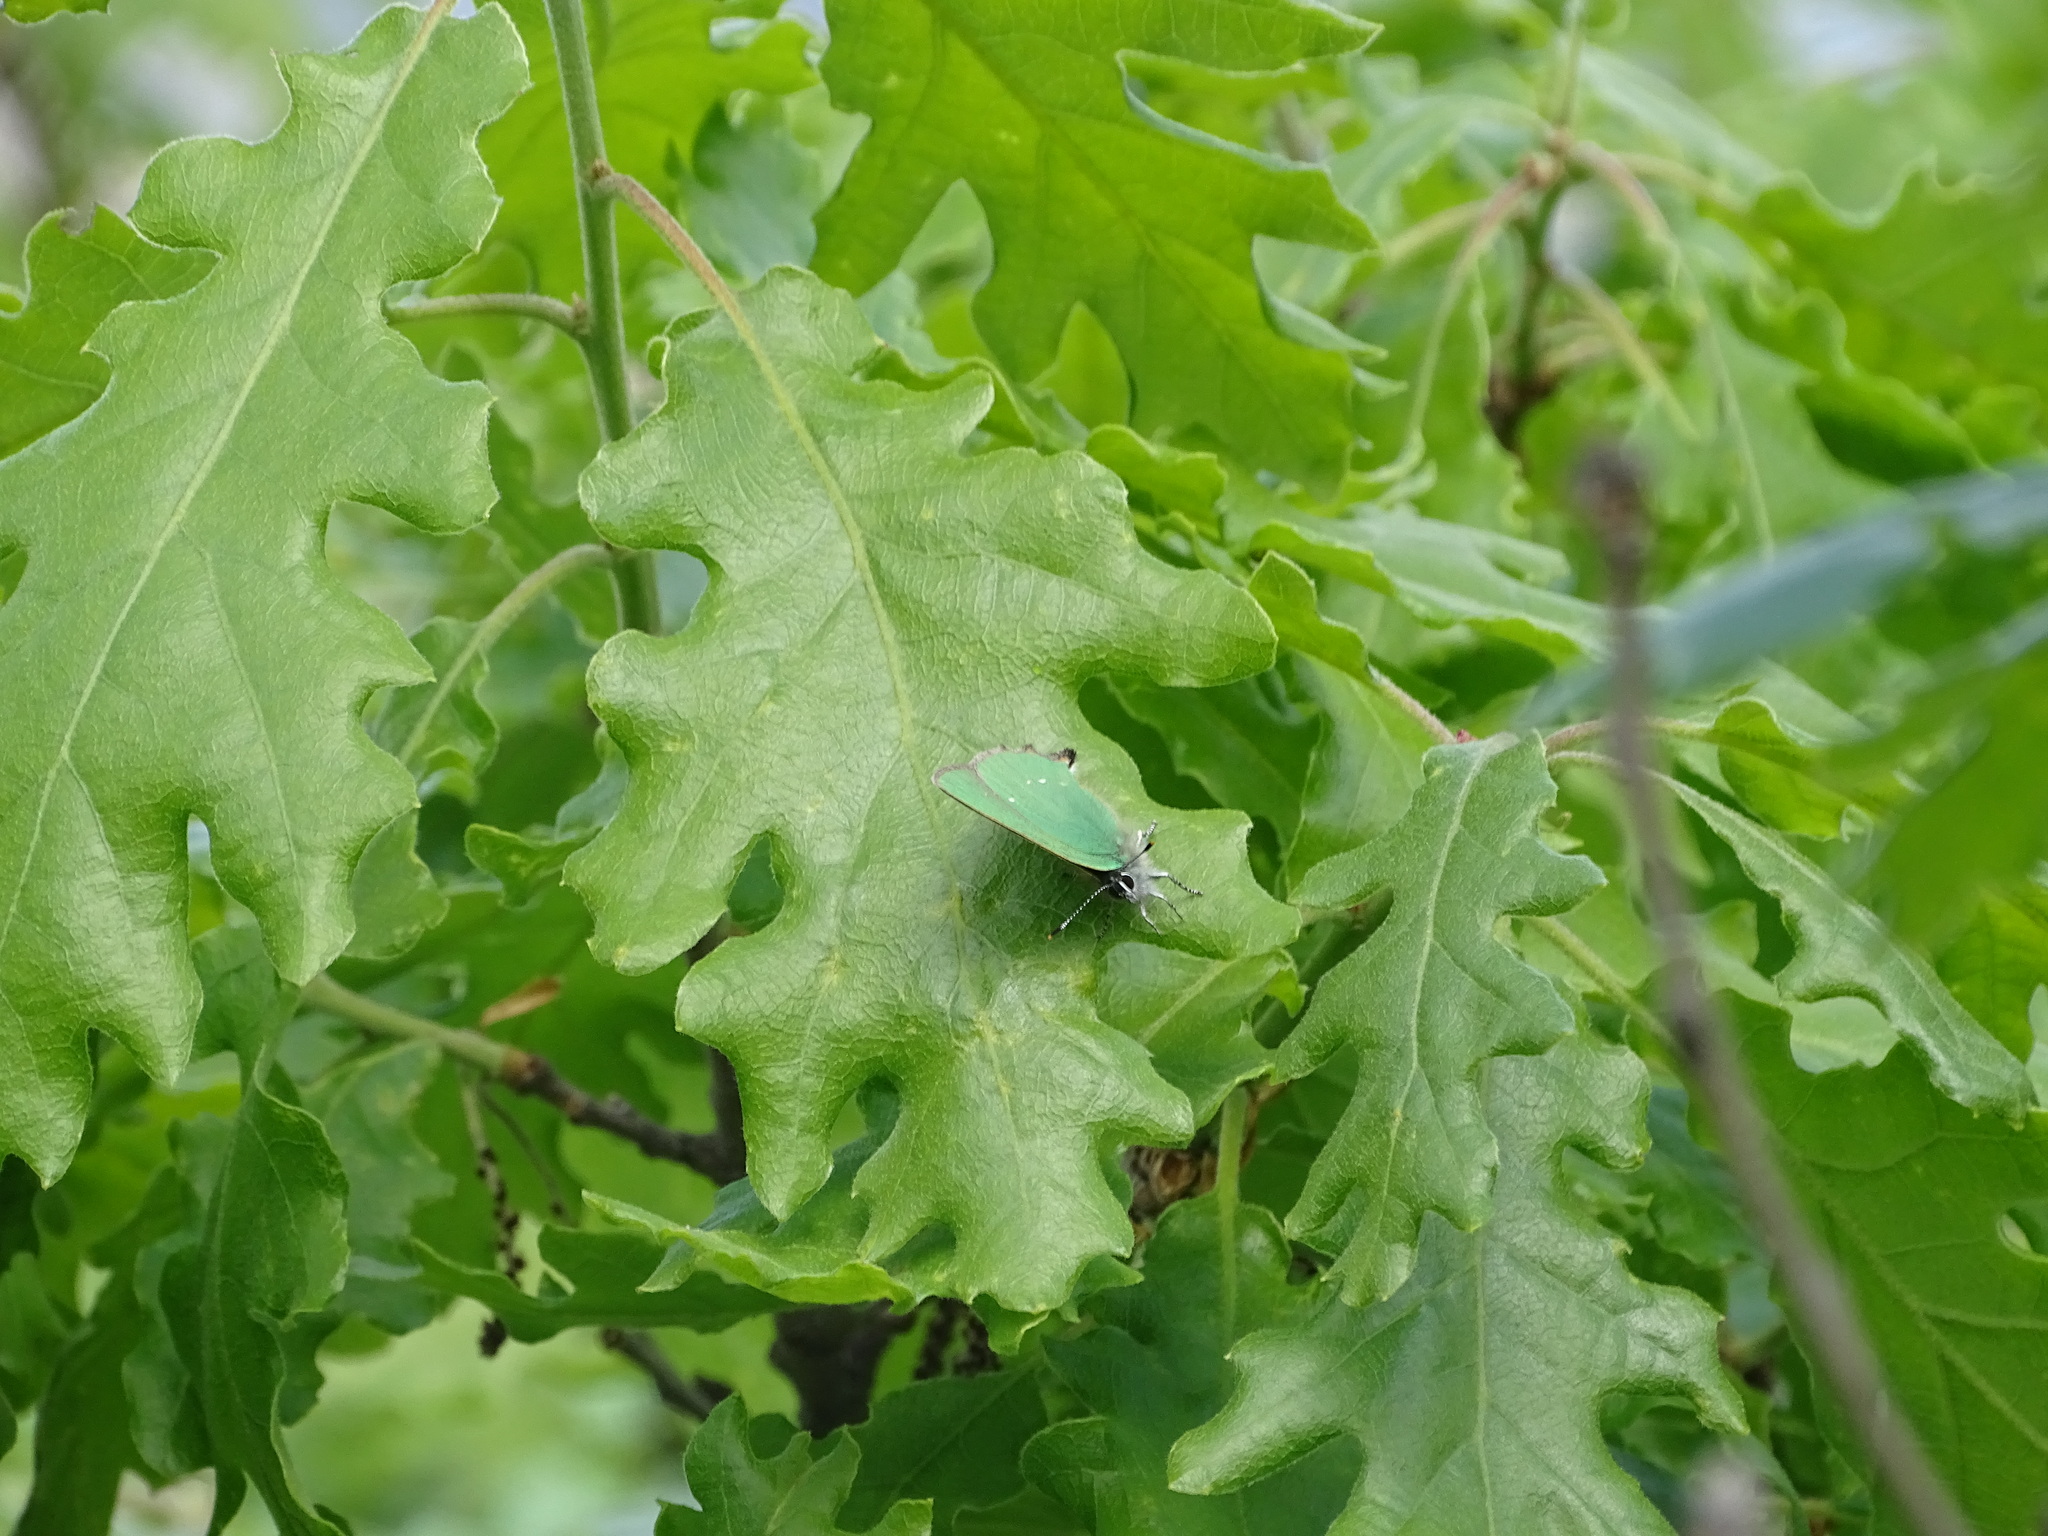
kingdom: Animalia
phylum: Arthropoda
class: Insecta
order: Lepidoptera
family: Lycaenidae
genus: Callophrys
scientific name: Callophrys rubi
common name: Green hairstreak
